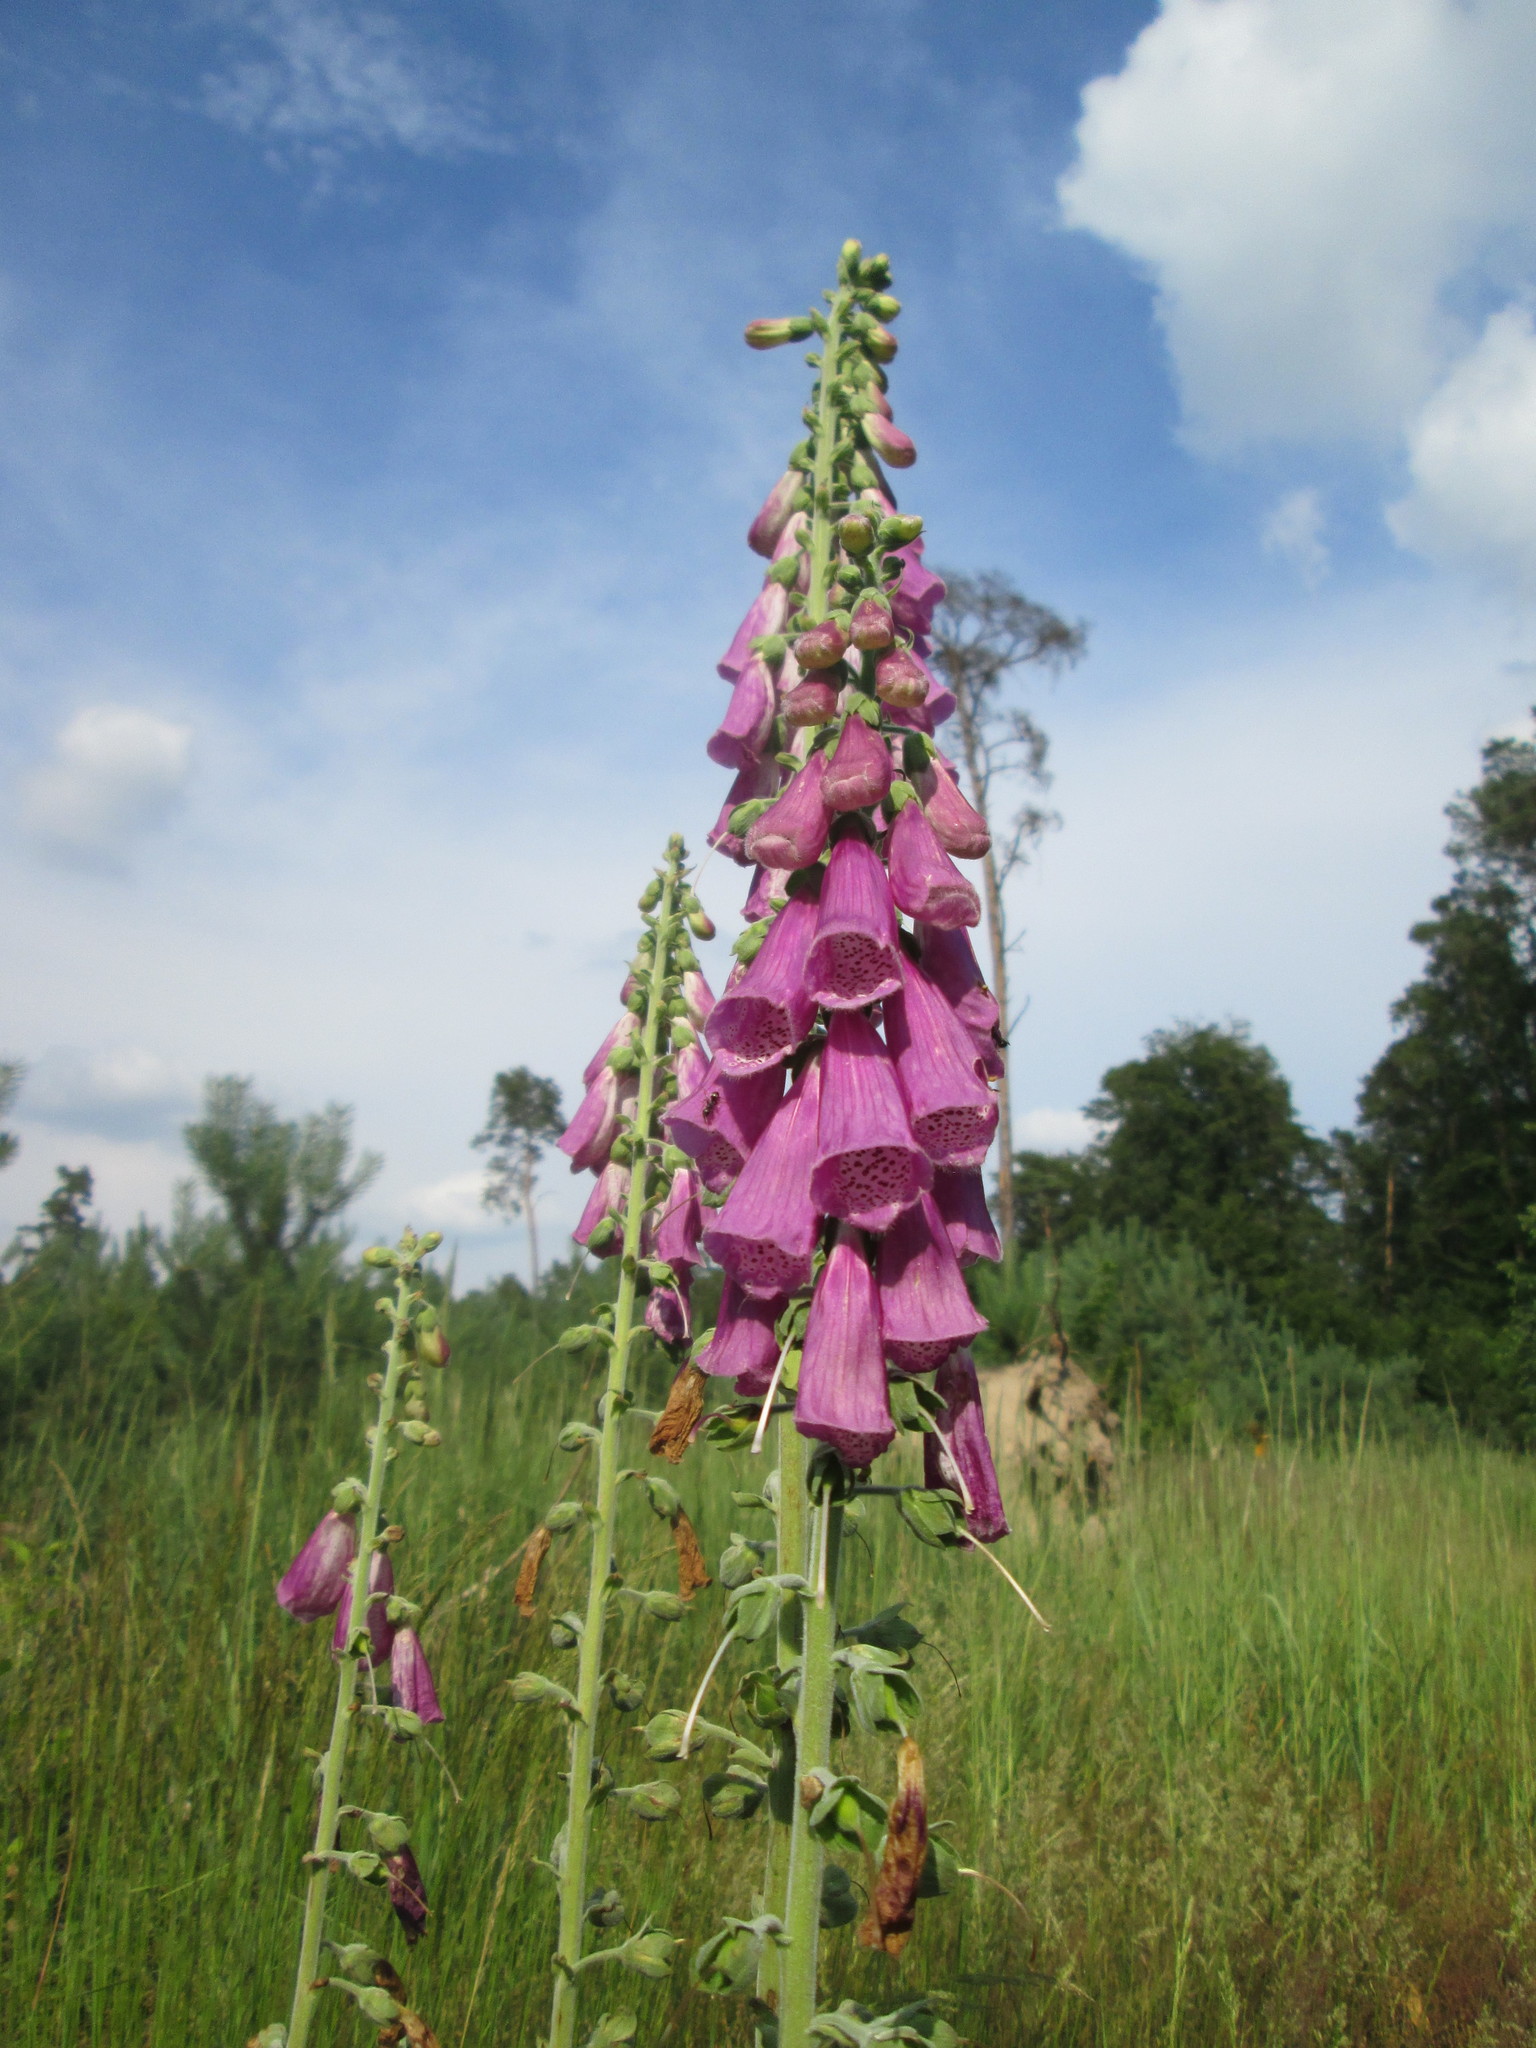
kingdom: Plantae
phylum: Tracheophyta
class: Magnoliopsida
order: Lamiales
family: Plantaginaceae
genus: Digitalis
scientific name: Digitalis purpurea
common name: Foxglove
